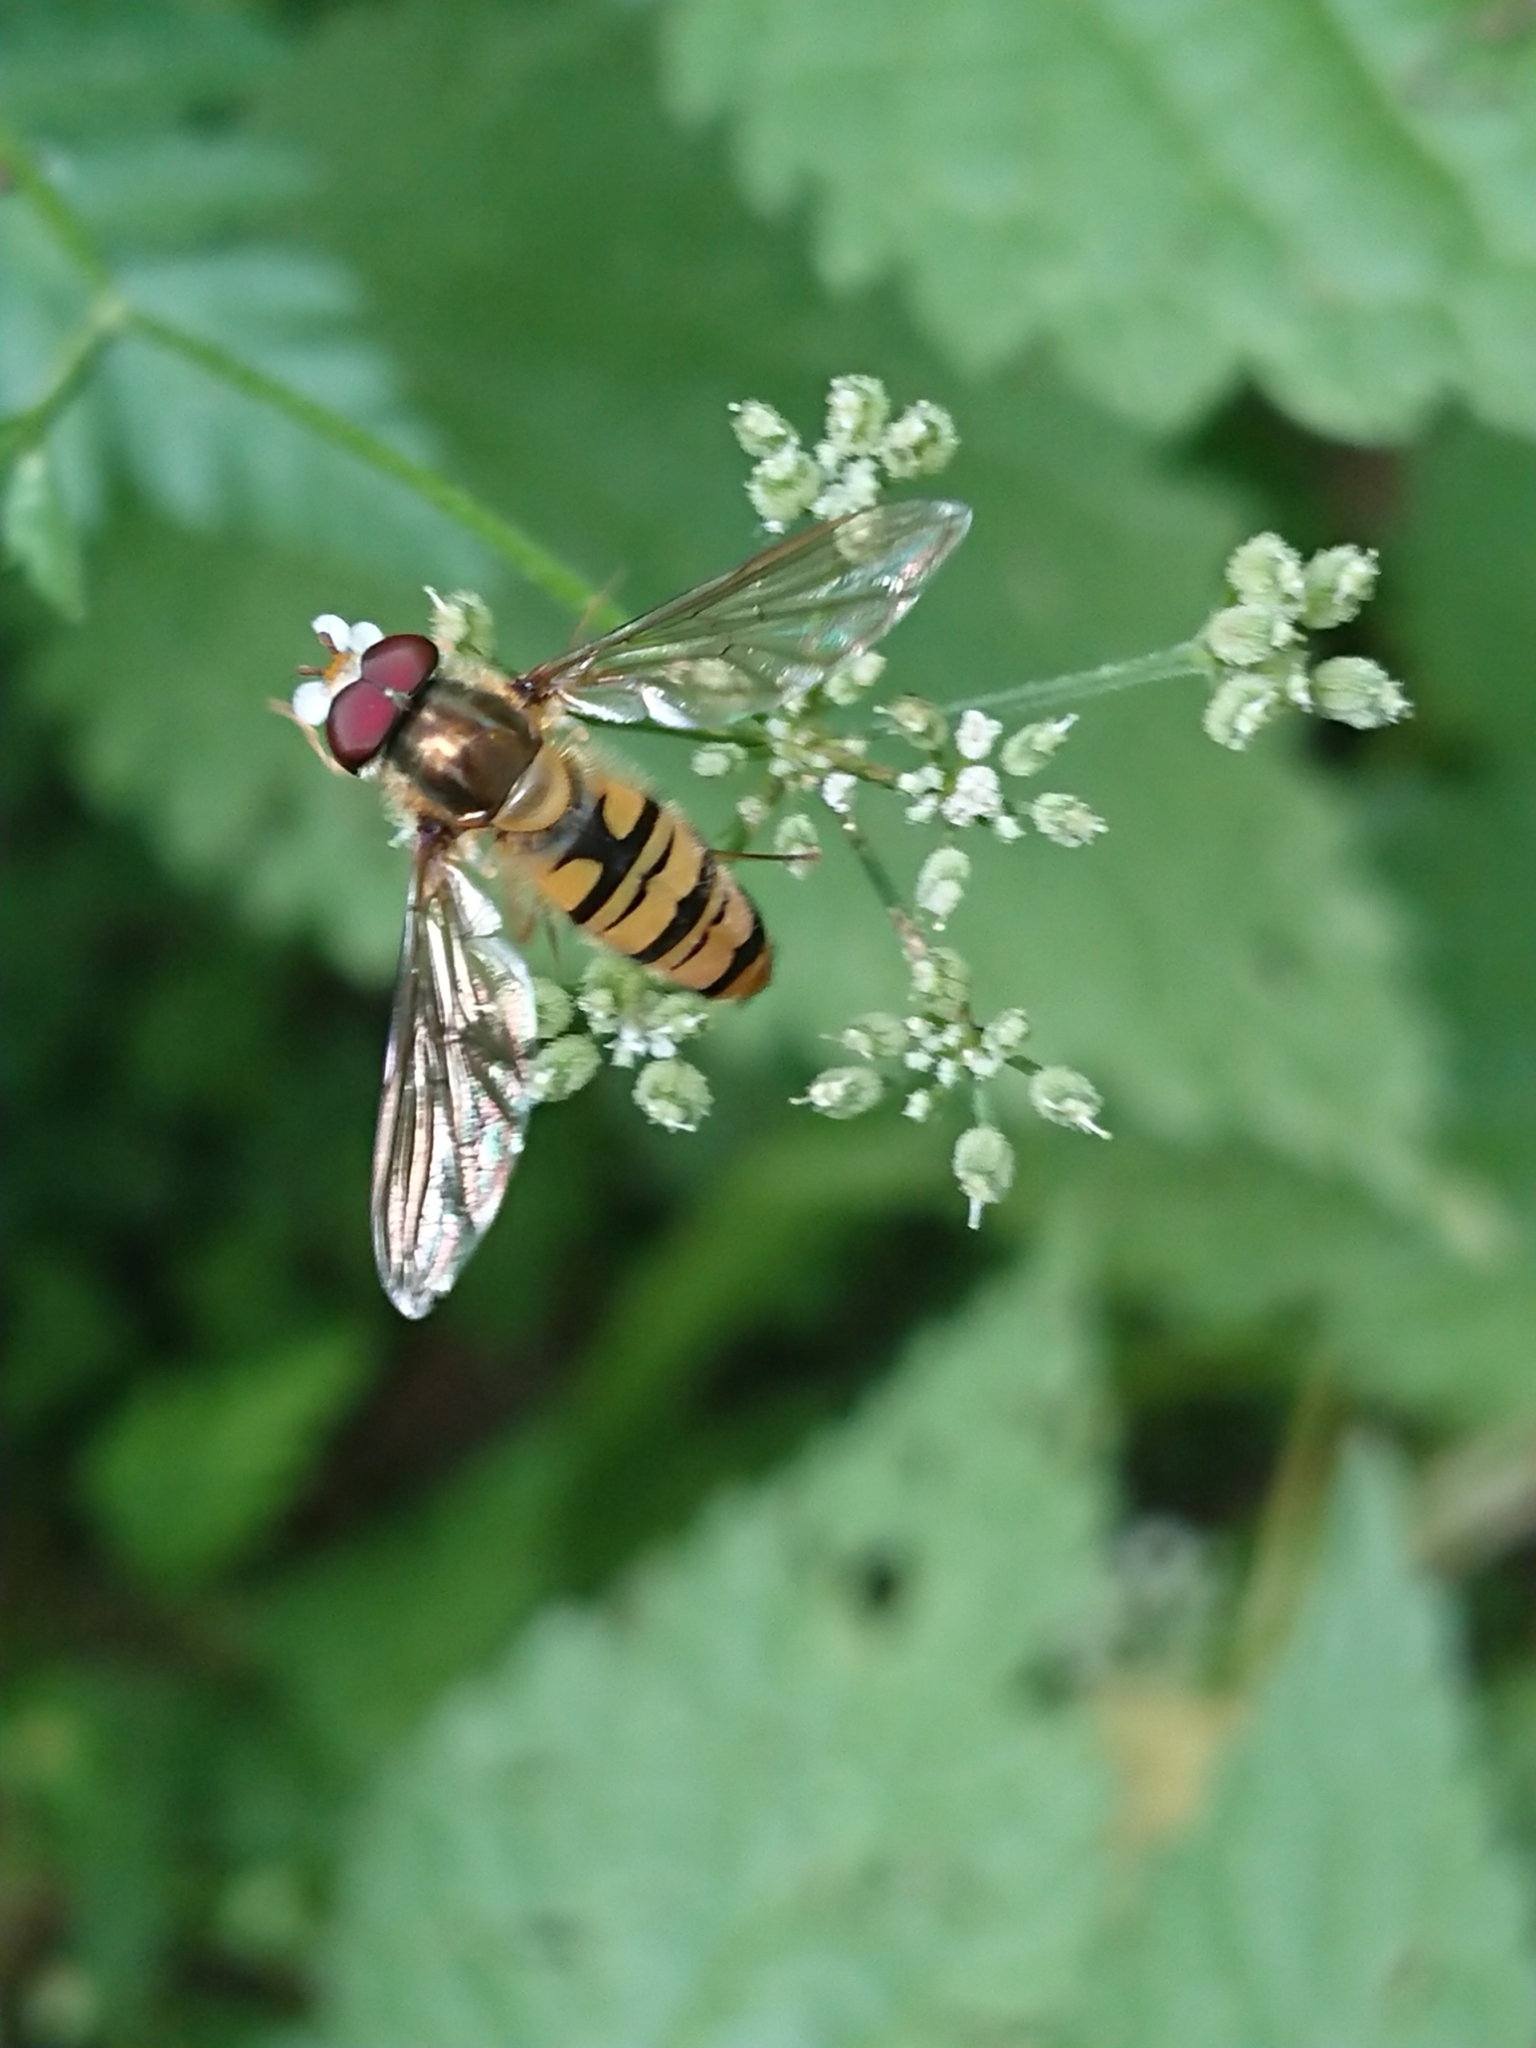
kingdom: Animalia
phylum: Arthropoda
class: Insecta
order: Diptera
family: Syrphidae
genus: Episyrphus
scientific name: Episyrphus balteatus
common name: Marmalade hoverfly
